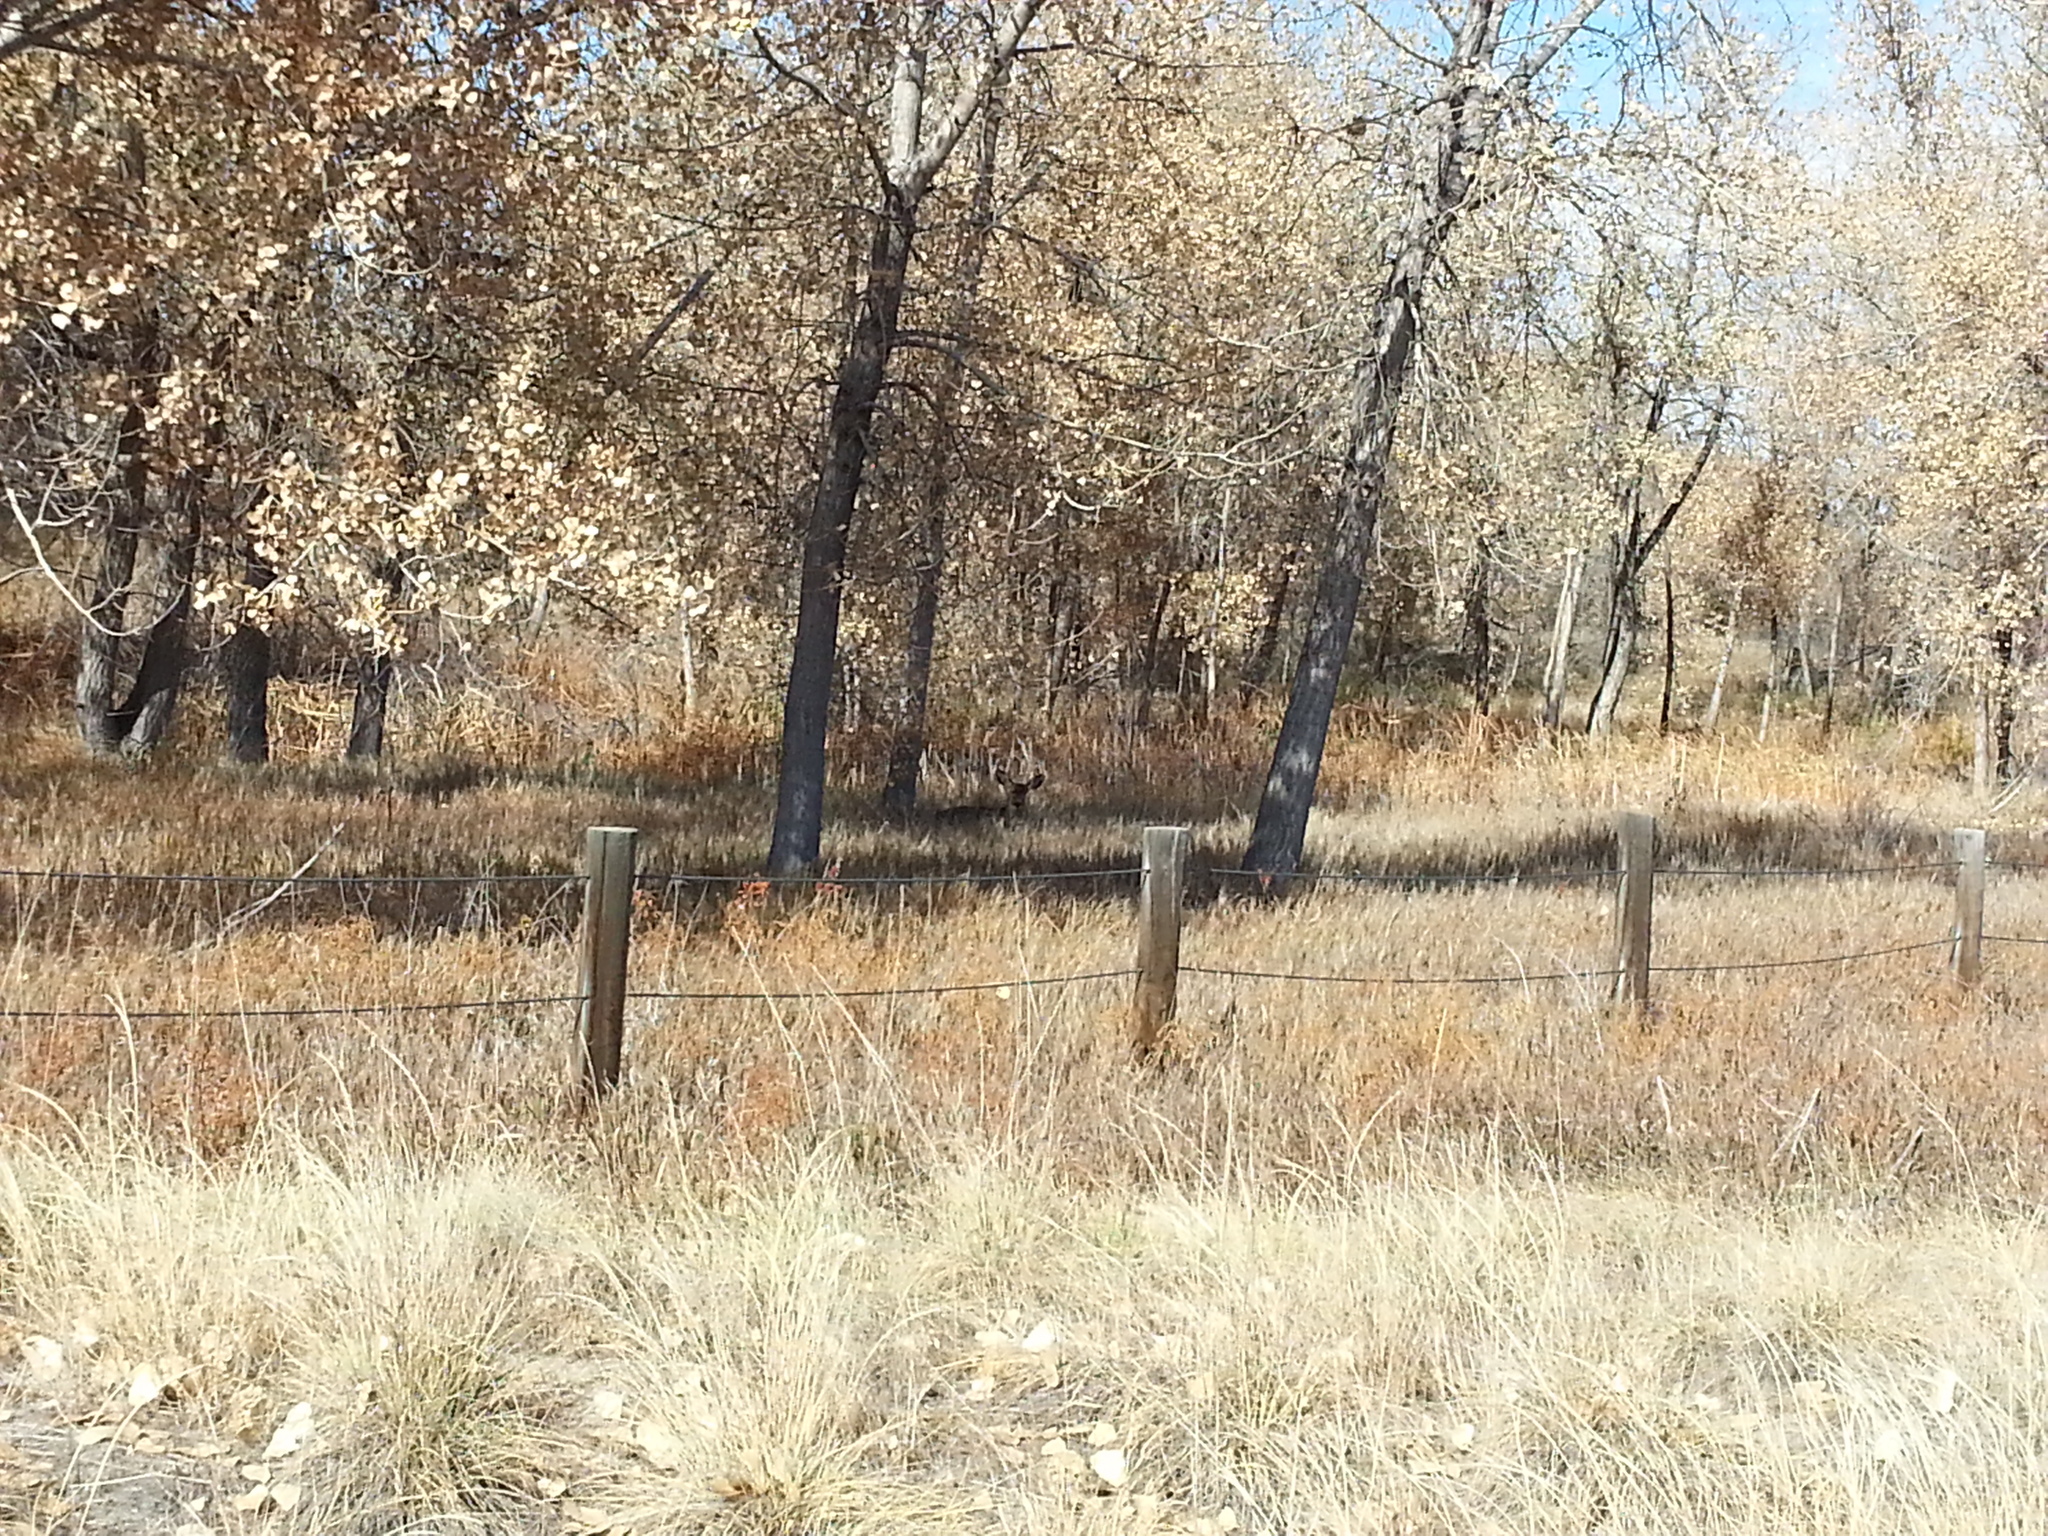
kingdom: Animalia
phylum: Chordata
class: Mammalia
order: Artiodactyla
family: Cervidae
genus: Odocoileus
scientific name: Odocoileus hemionus
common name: Mule deer
